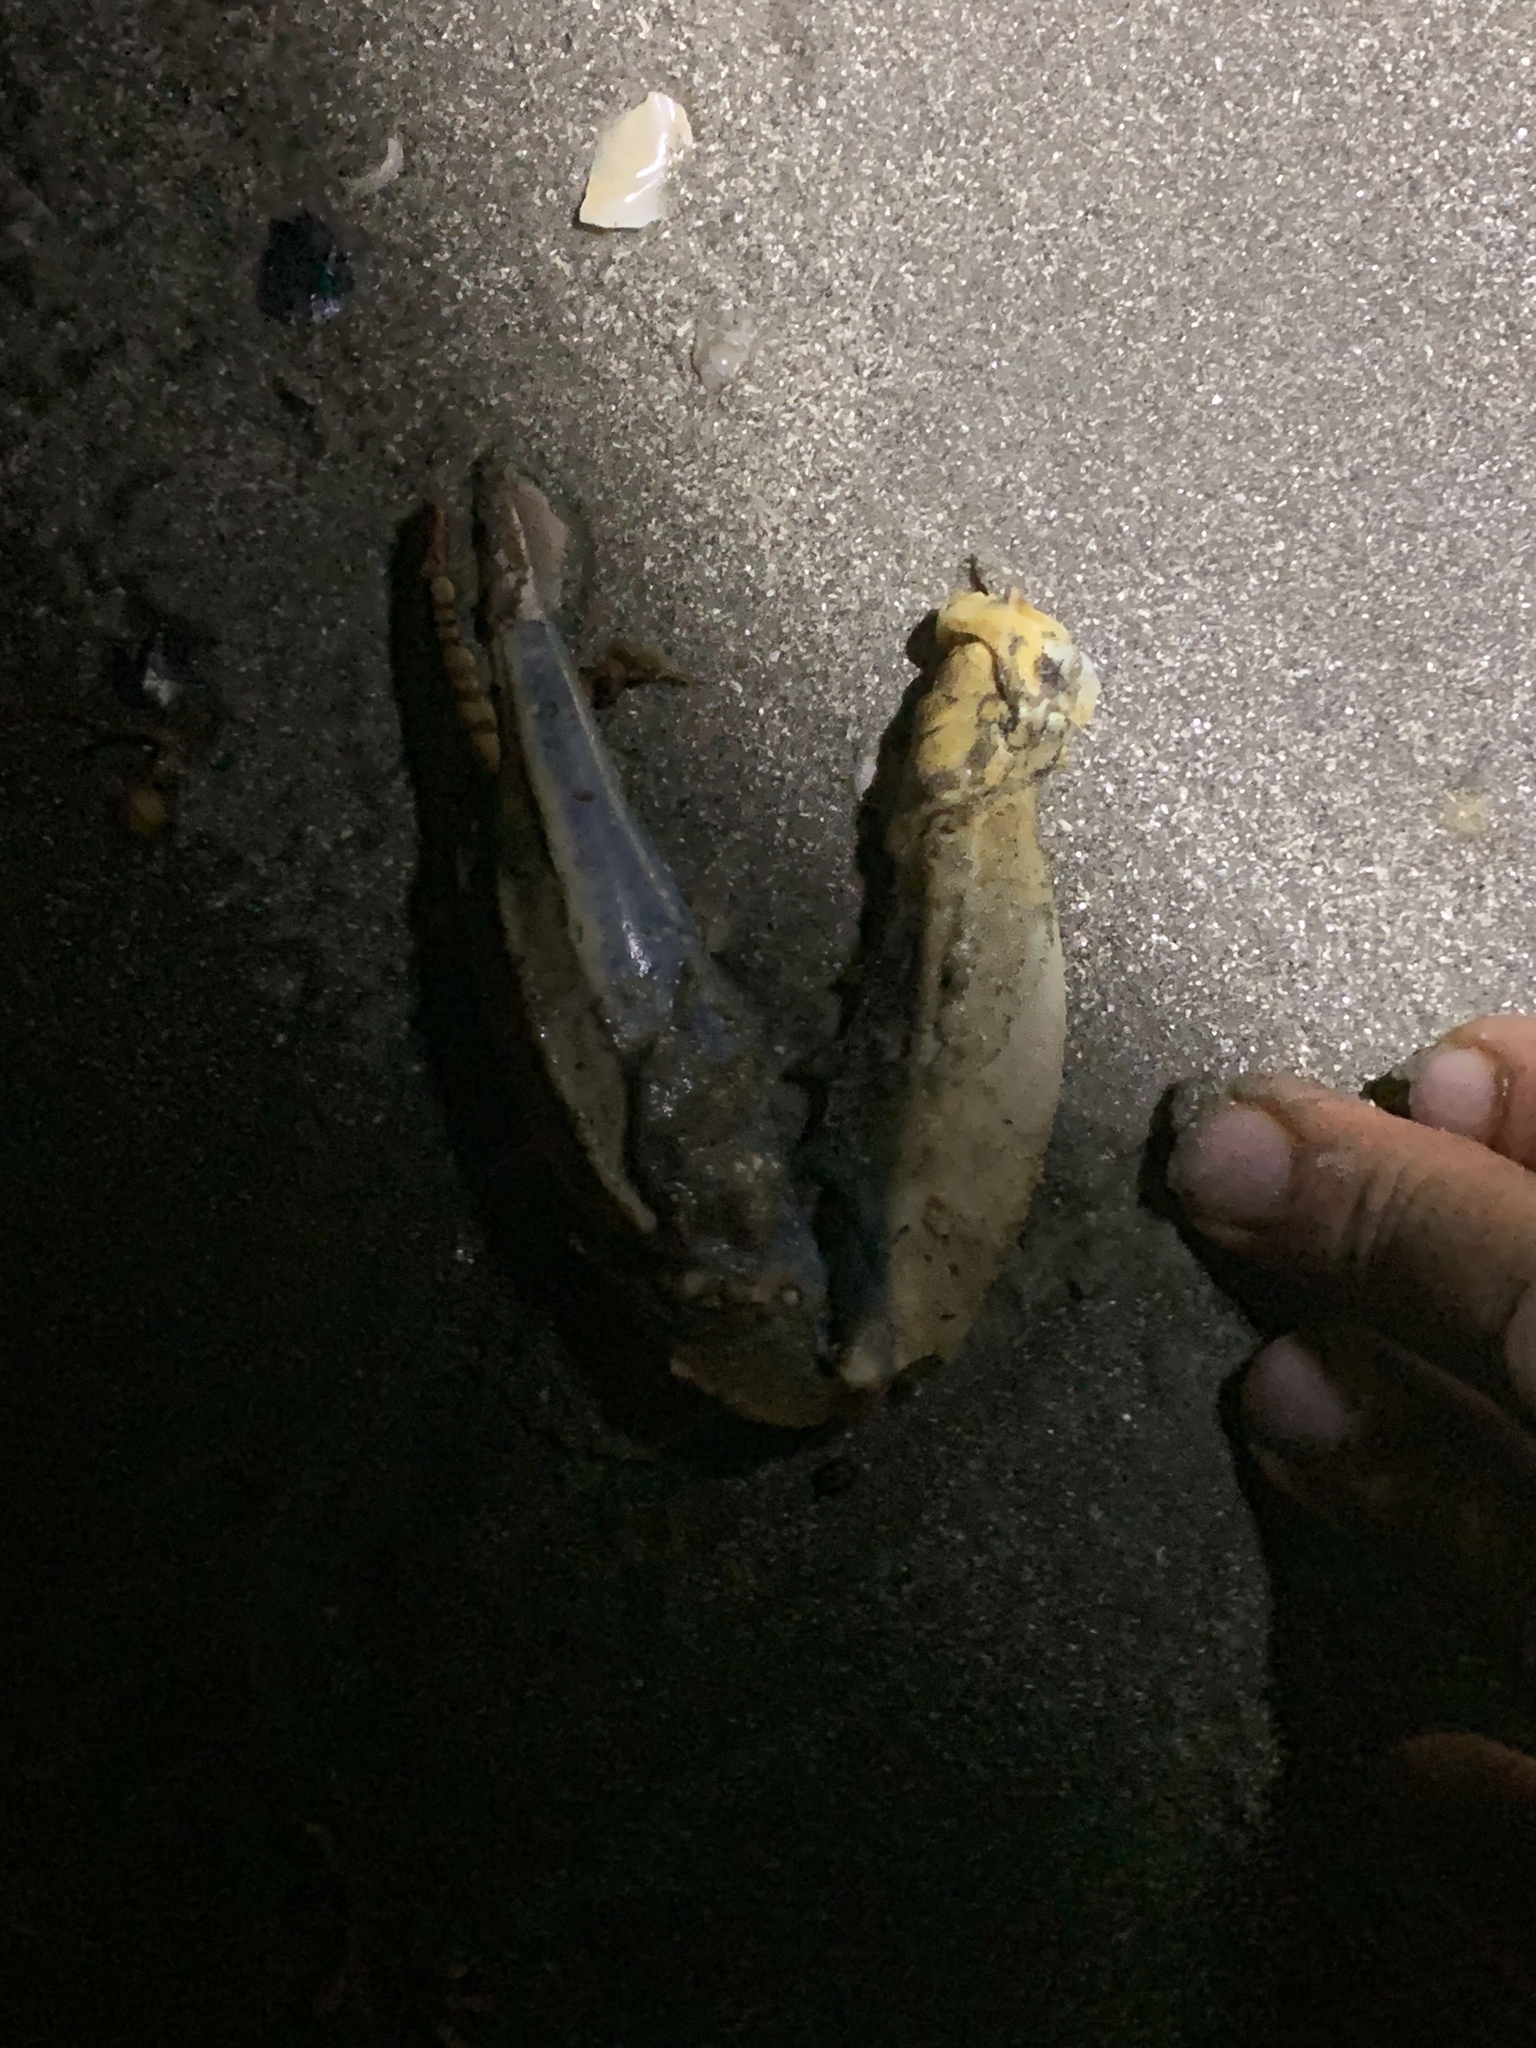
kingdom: Animalia
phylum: Arthropoda
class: Malacostraca
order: Decapoda
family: Portunidae
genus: Callinectes
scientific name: Callinectes sapidus
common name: Blue crab
